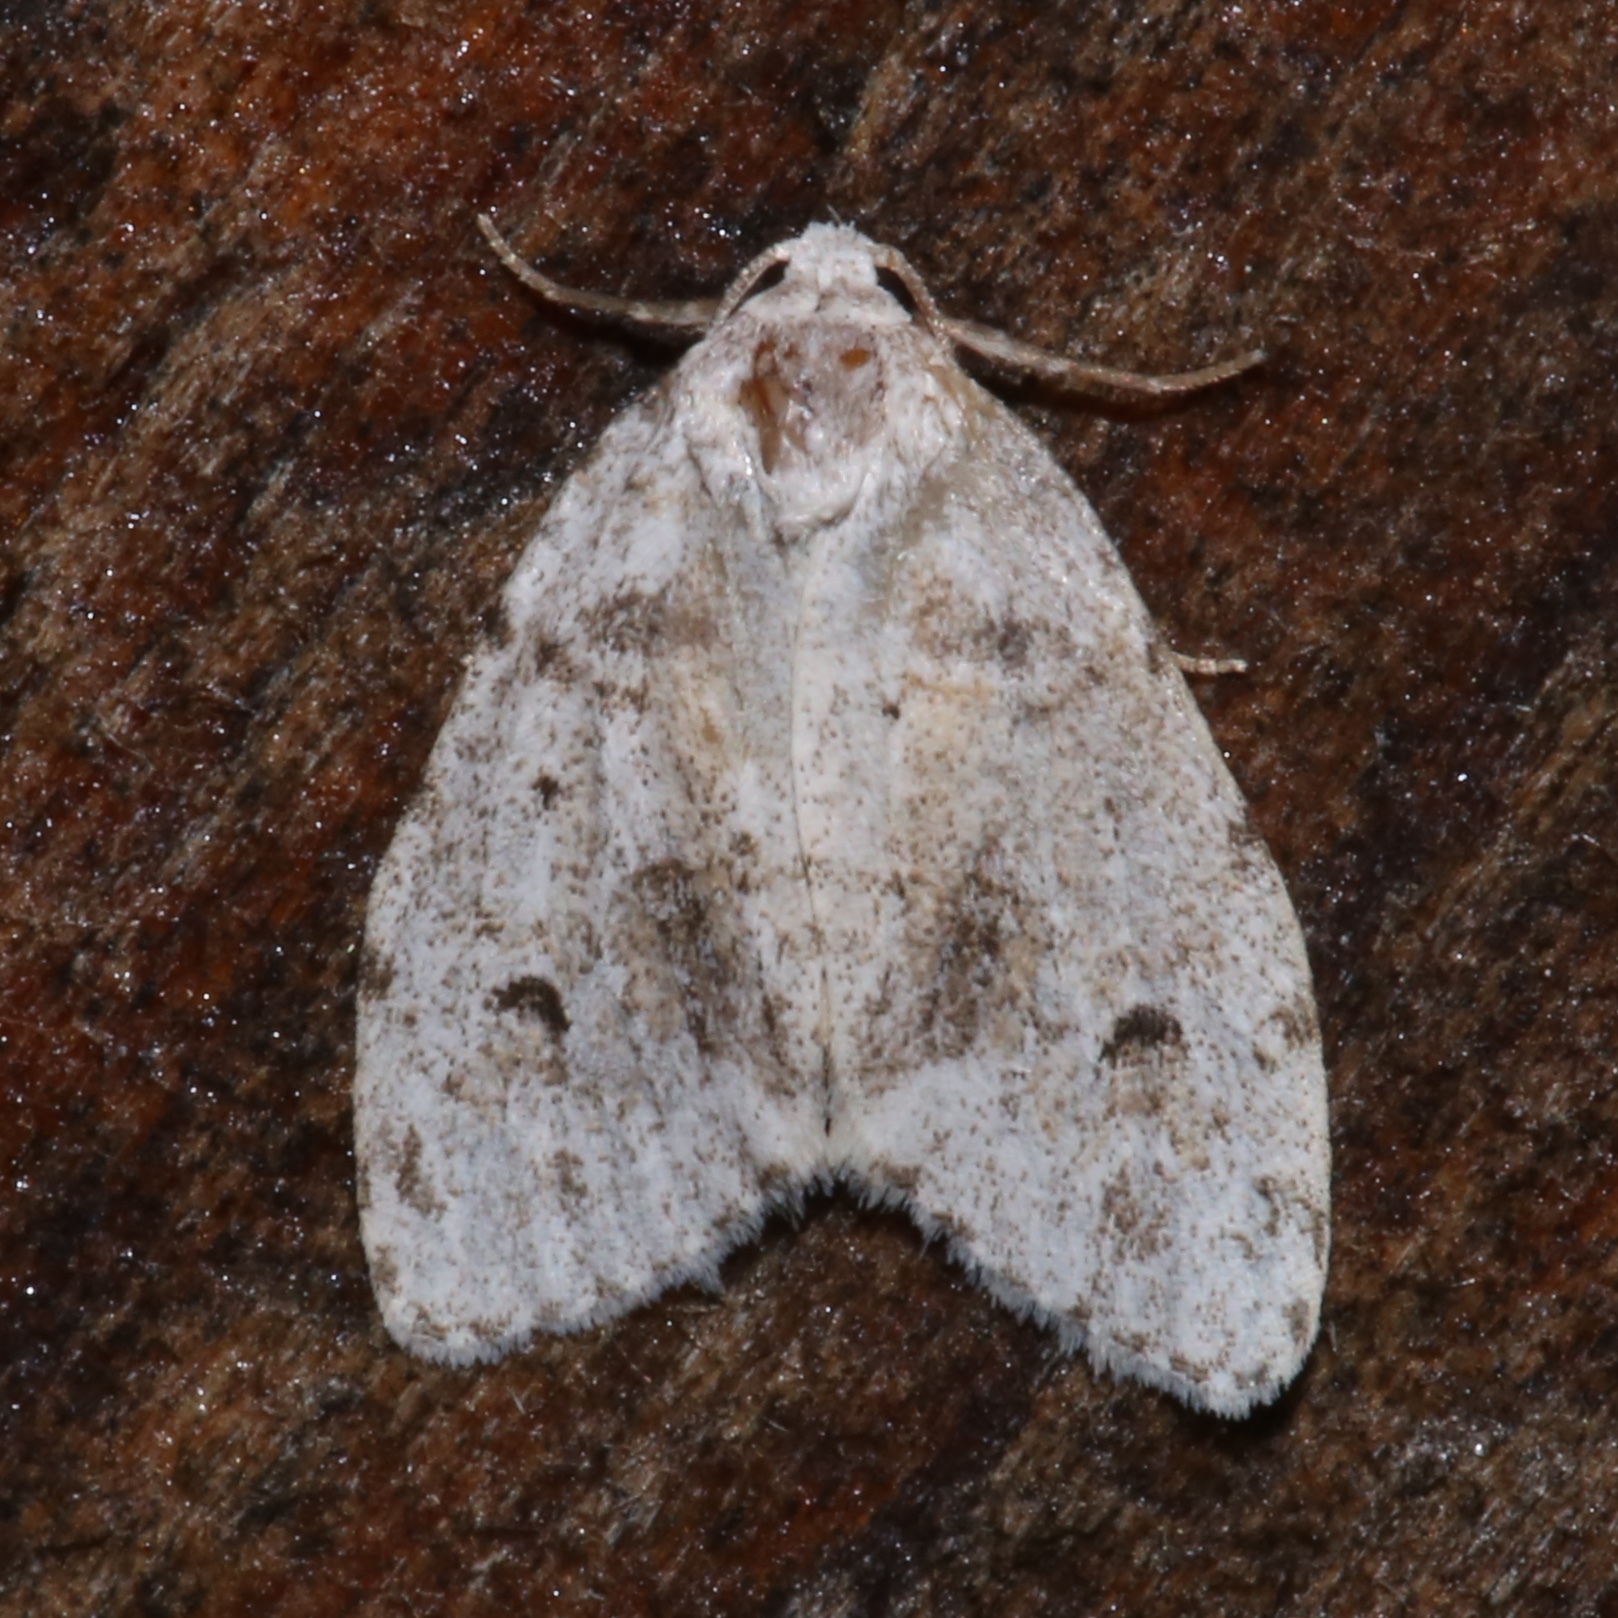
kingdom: Animalia
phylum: Arthropoda
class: Insecta
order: Lepidoptera
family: Erebidae
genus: Clemensia
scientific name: Clemensia albata
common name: Little white lichen moth
